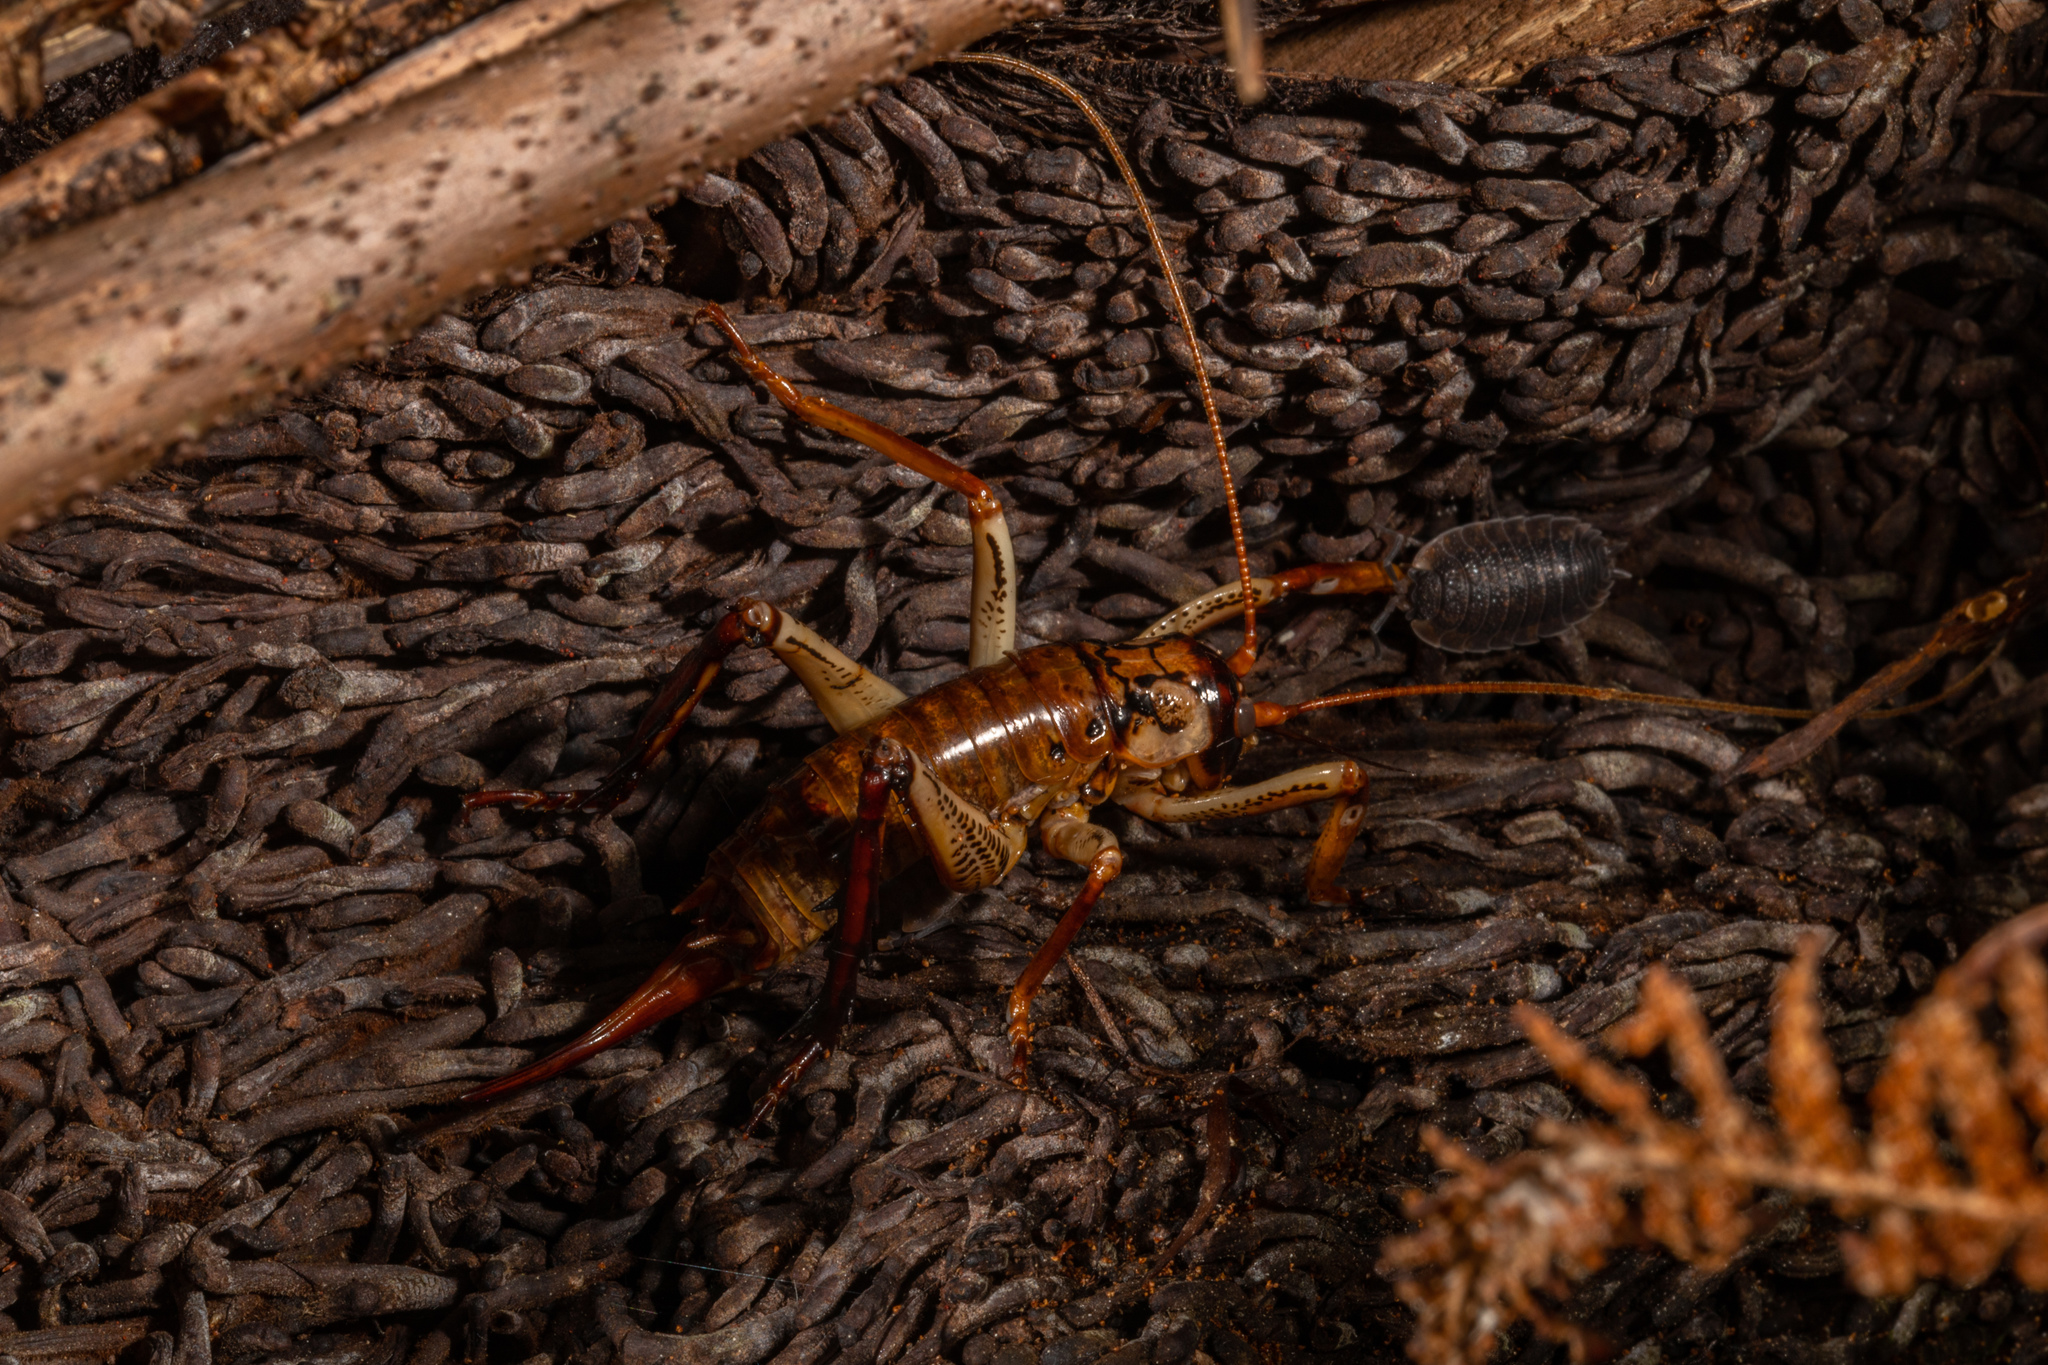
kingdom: Animalia
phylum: Arthropoda
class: Insecta
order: Orthoptera
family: Anostostomatidae
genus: Hemideina
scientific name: Hemideina thoracica
